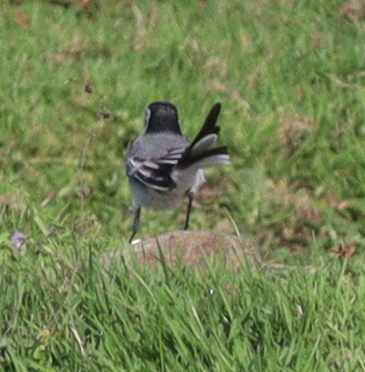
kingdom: Animalia
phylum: Chordata
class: Aves
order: Passeriformes
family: Motacillidae
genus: Motacilla
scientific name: Motacilla alba
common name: White wagtail
